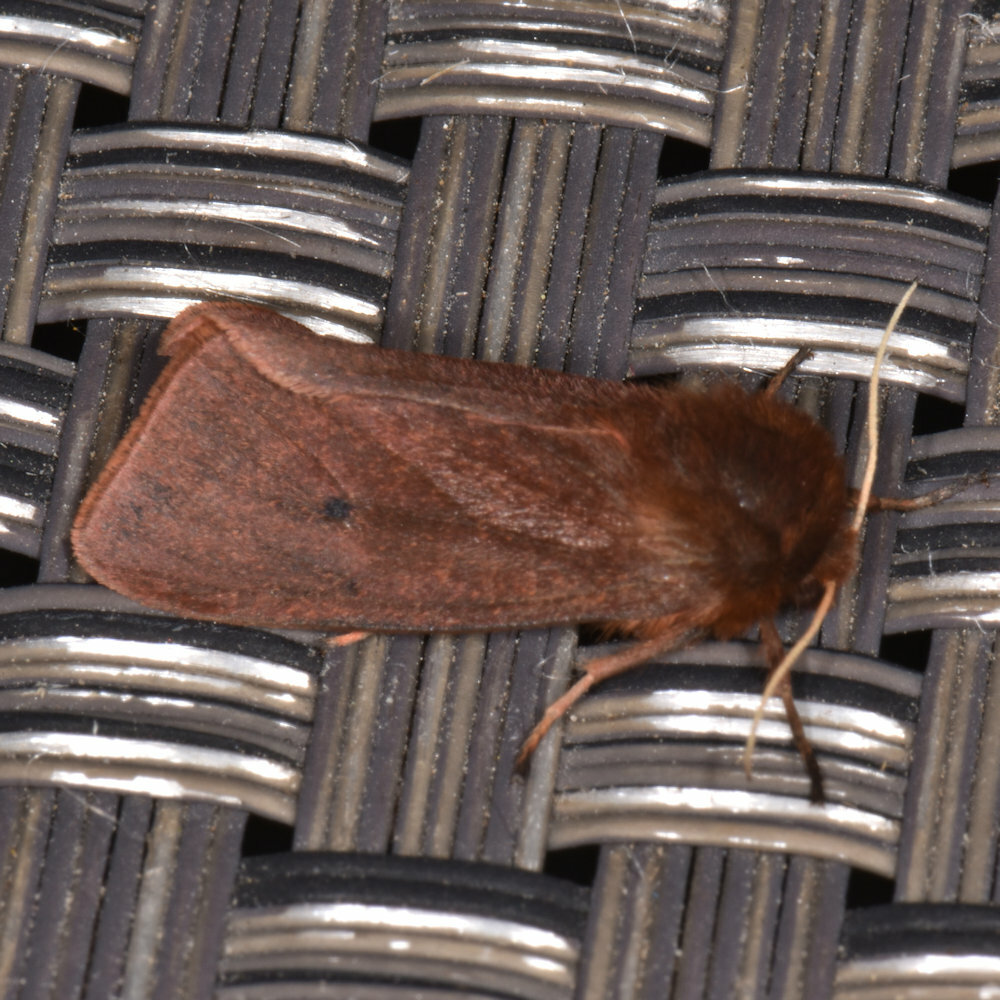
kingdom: Animalia
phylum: Arthropoda
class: Insecta
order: Lepidoptera
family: Erebidae
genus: Phragmatobia
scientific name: Phragmatobia fuliginosa
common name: Ruby tiger
